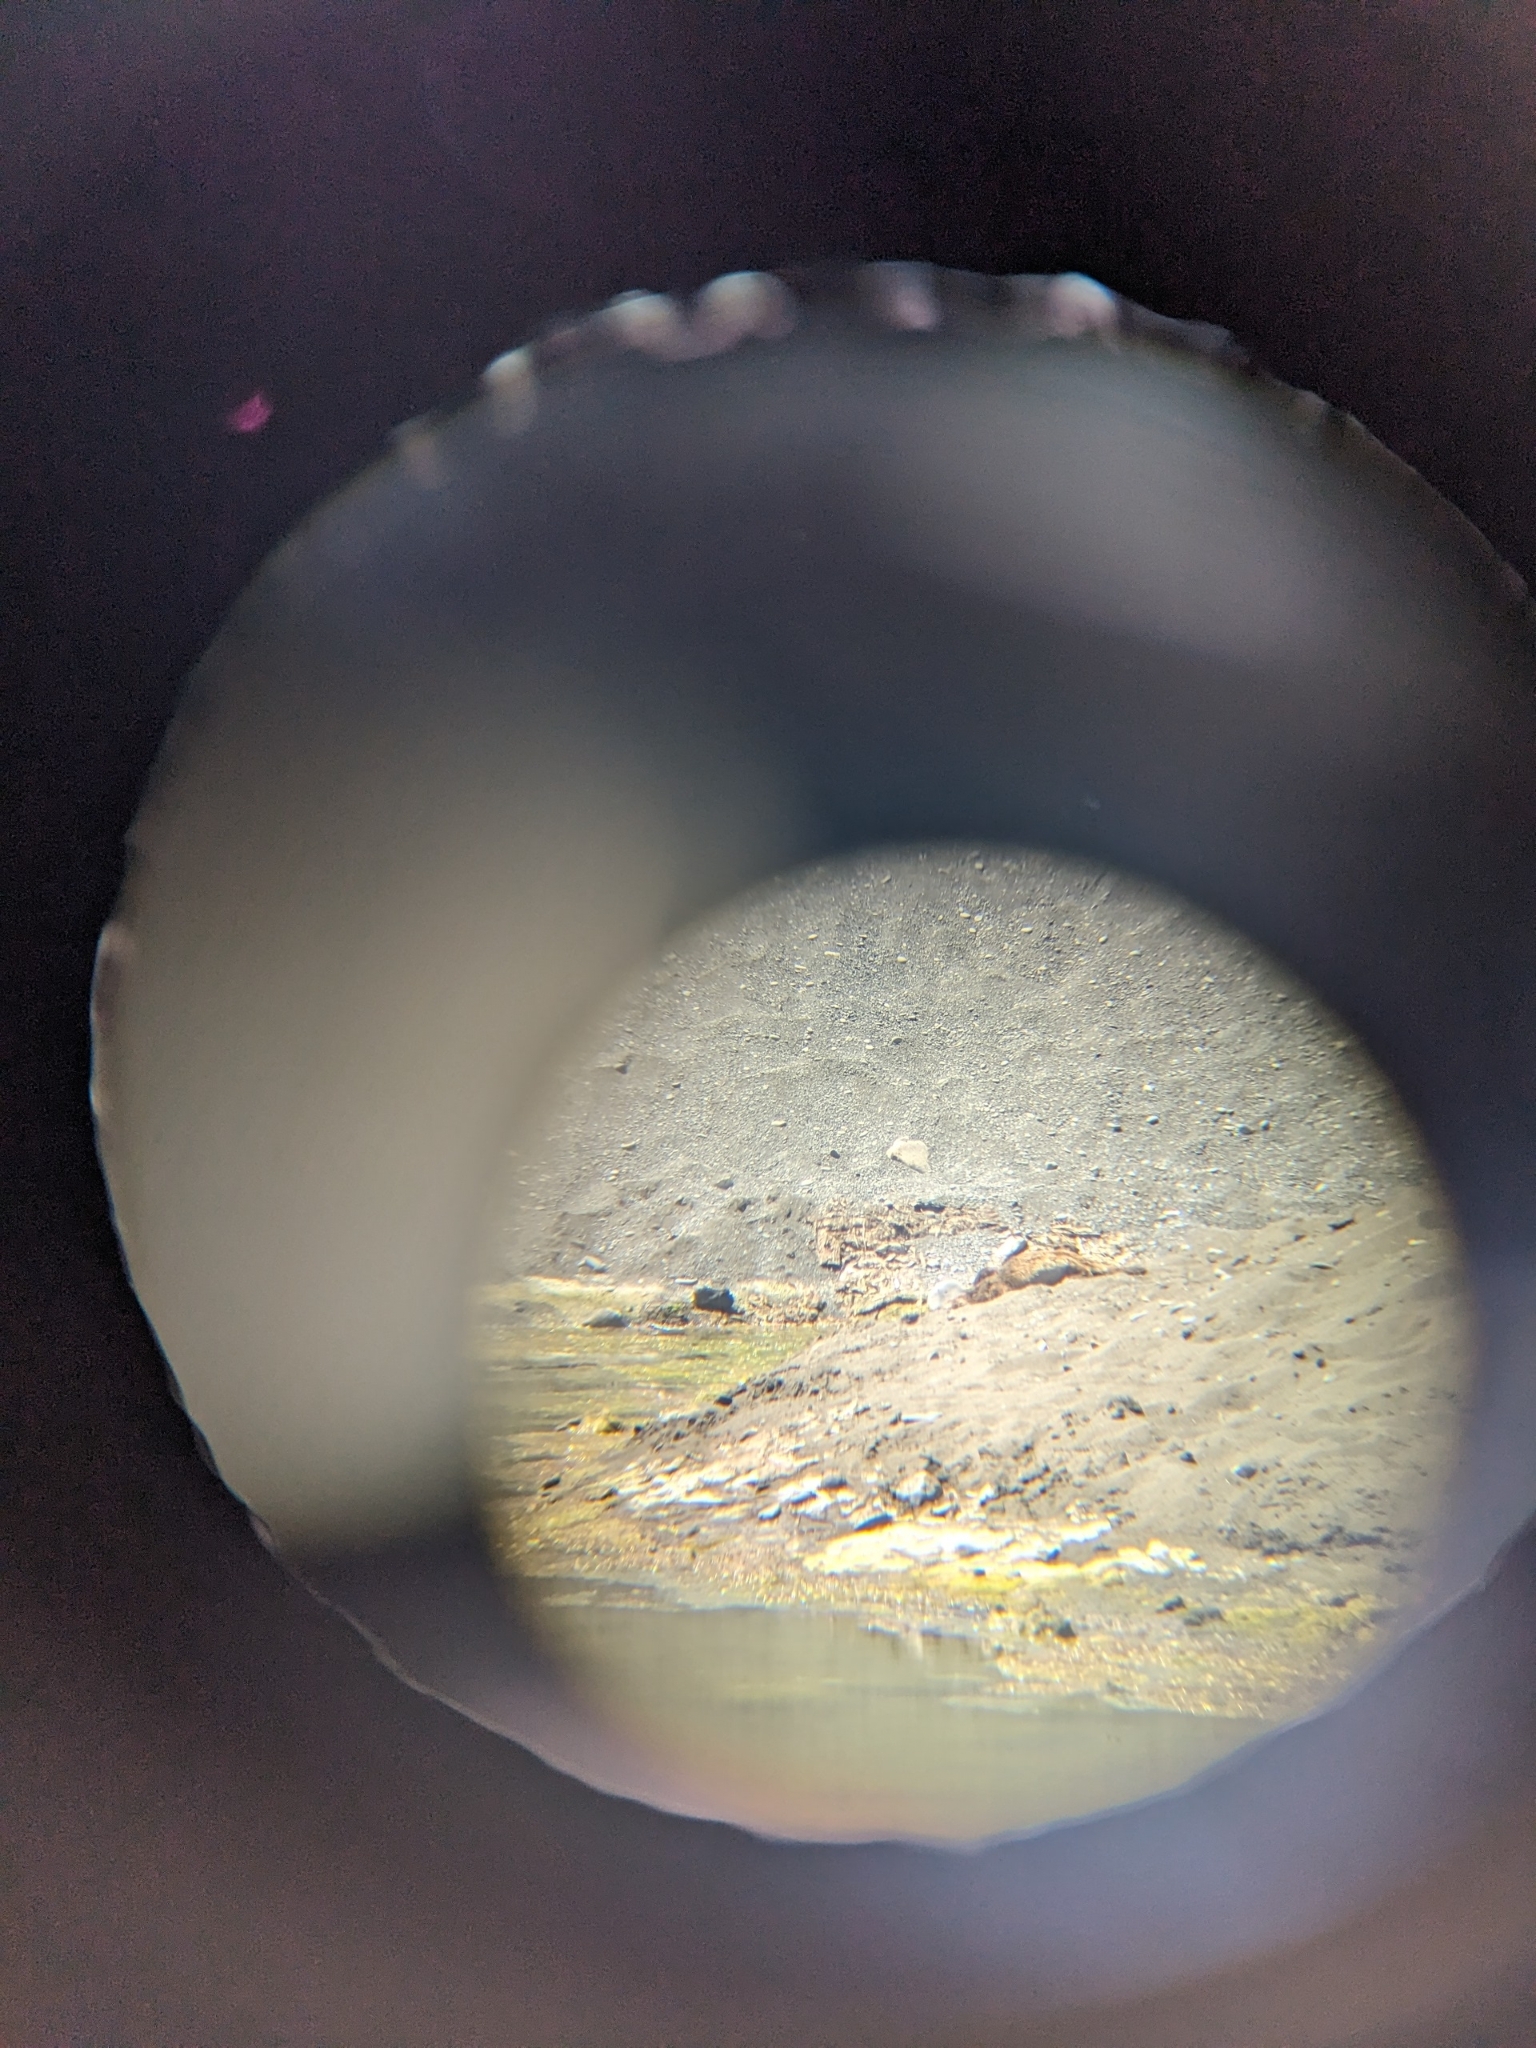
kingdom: Animalia
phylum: Chordata
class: Mammalia
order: Carnivora
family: Mustelidae
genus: Lontra
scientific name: Lontra canadensis
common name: North american river otter
